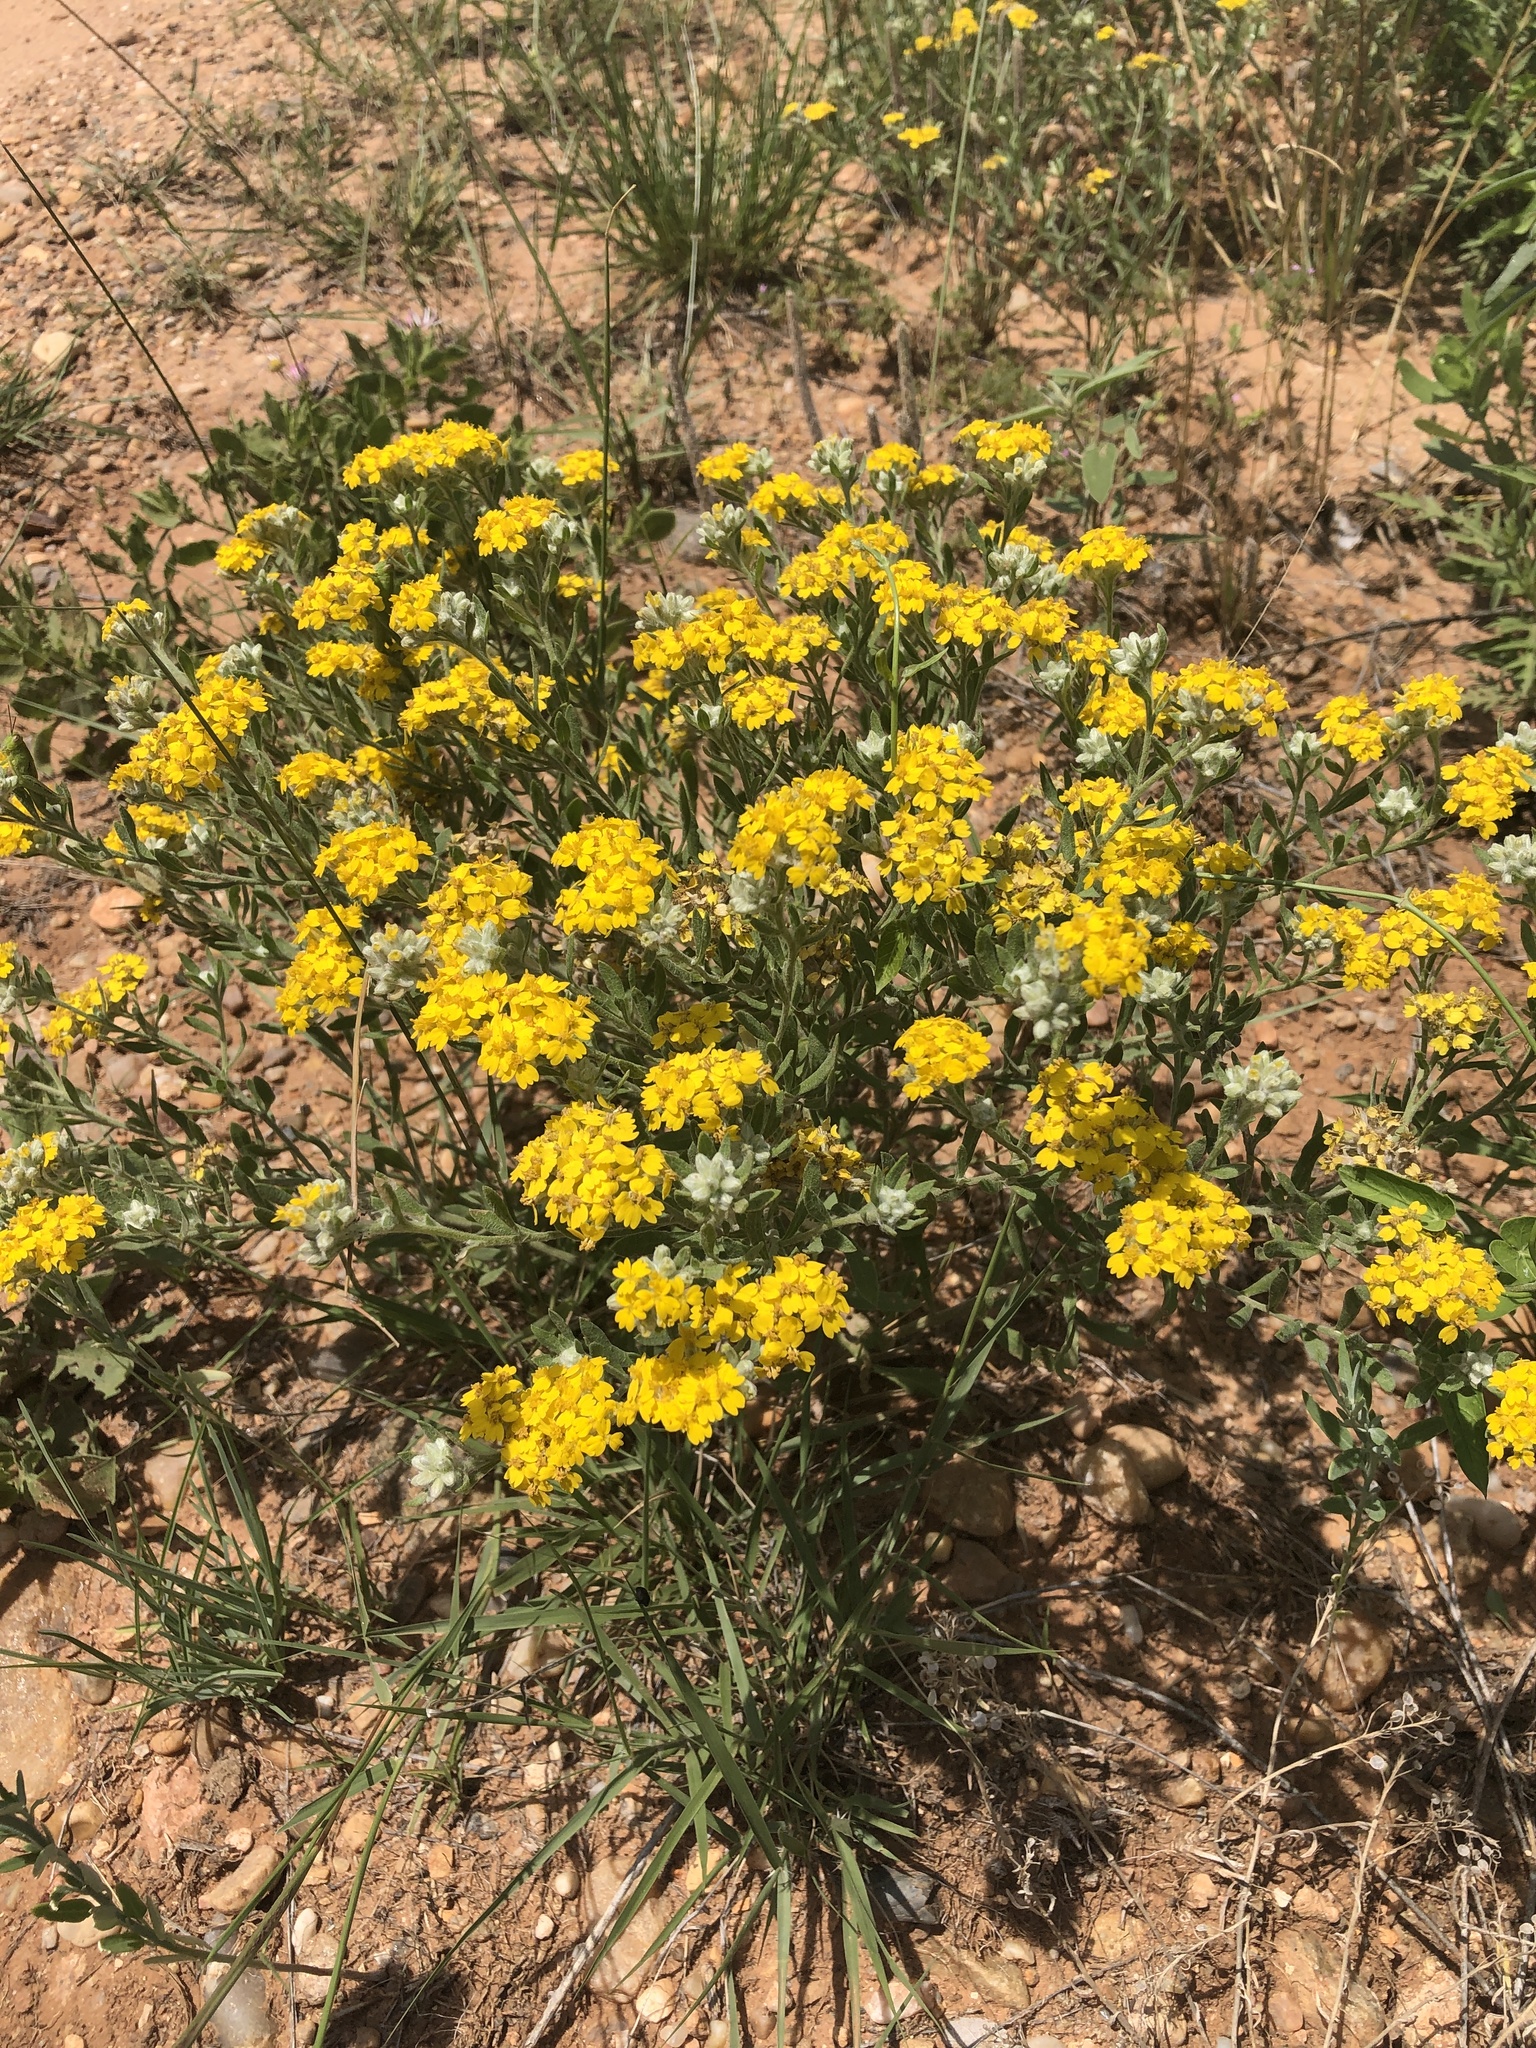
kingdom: Plantae
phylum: Tracheophyta
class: Magnoliopsida
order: Asterales
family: Asteraceae
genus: Psilostrophe
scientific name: Psilostrophe tagetina
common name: Marigold paper-flower
